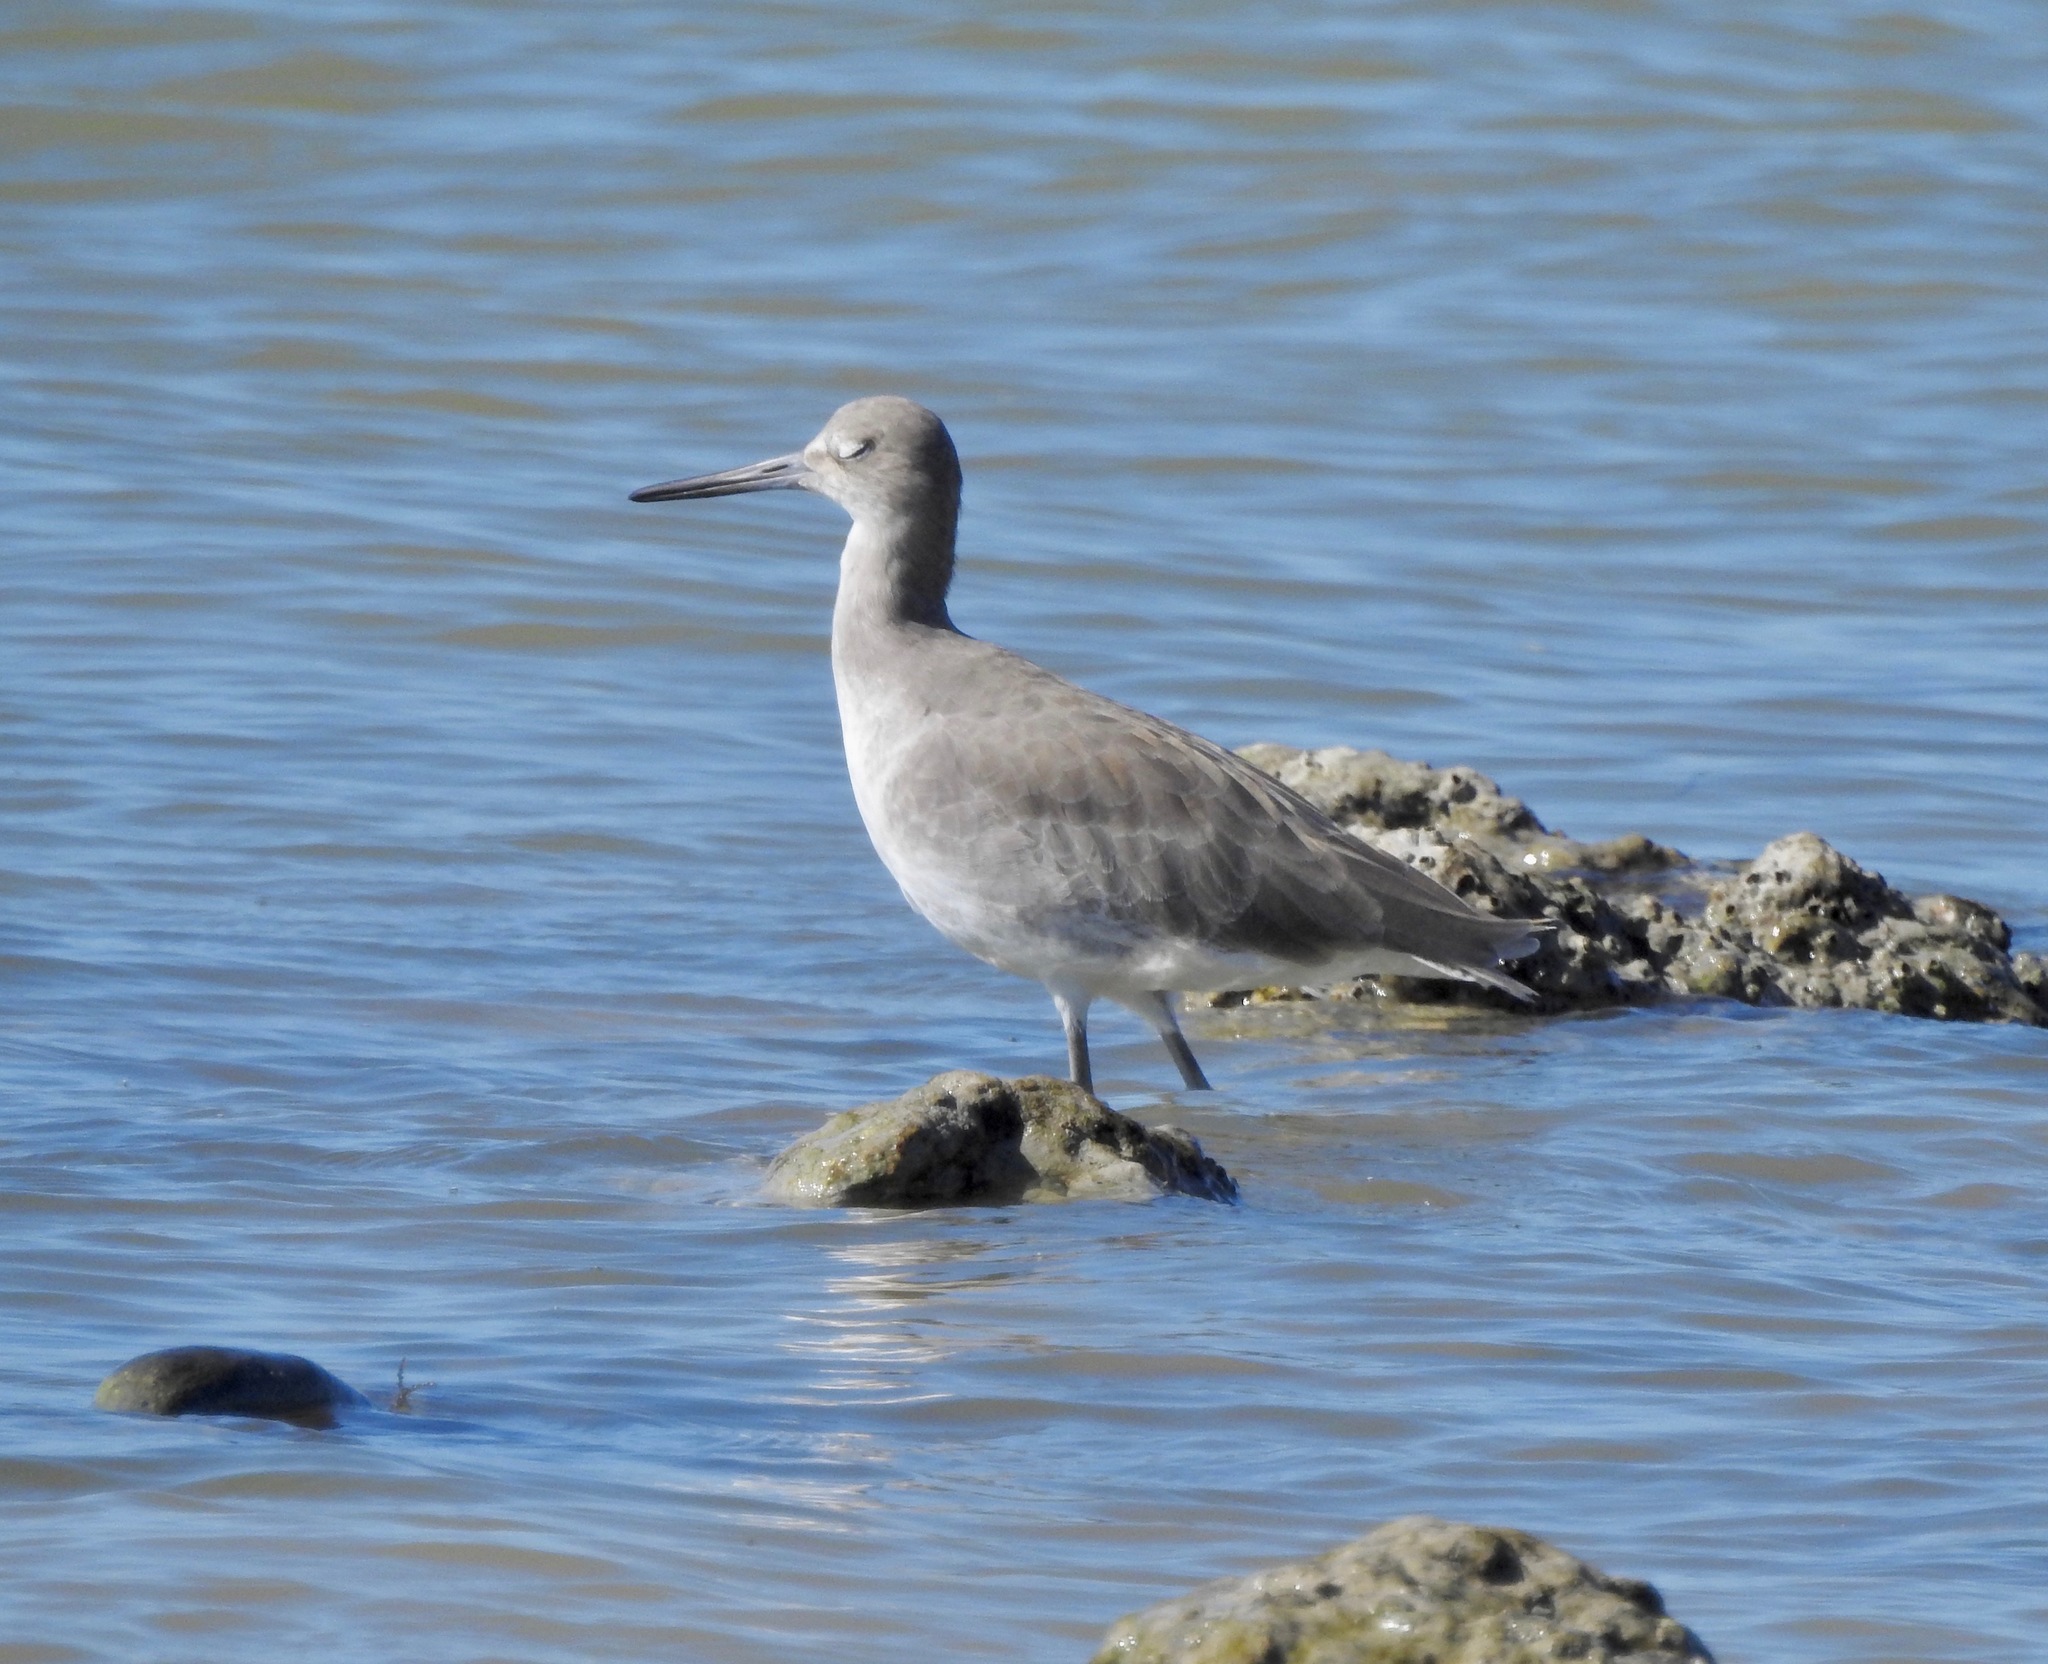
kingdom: Animalia
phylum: Chordata
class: Aves
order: Charadriiformes
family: Scolopacidae
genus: Tringa
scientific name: Tringa semipalmata
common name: Willet
